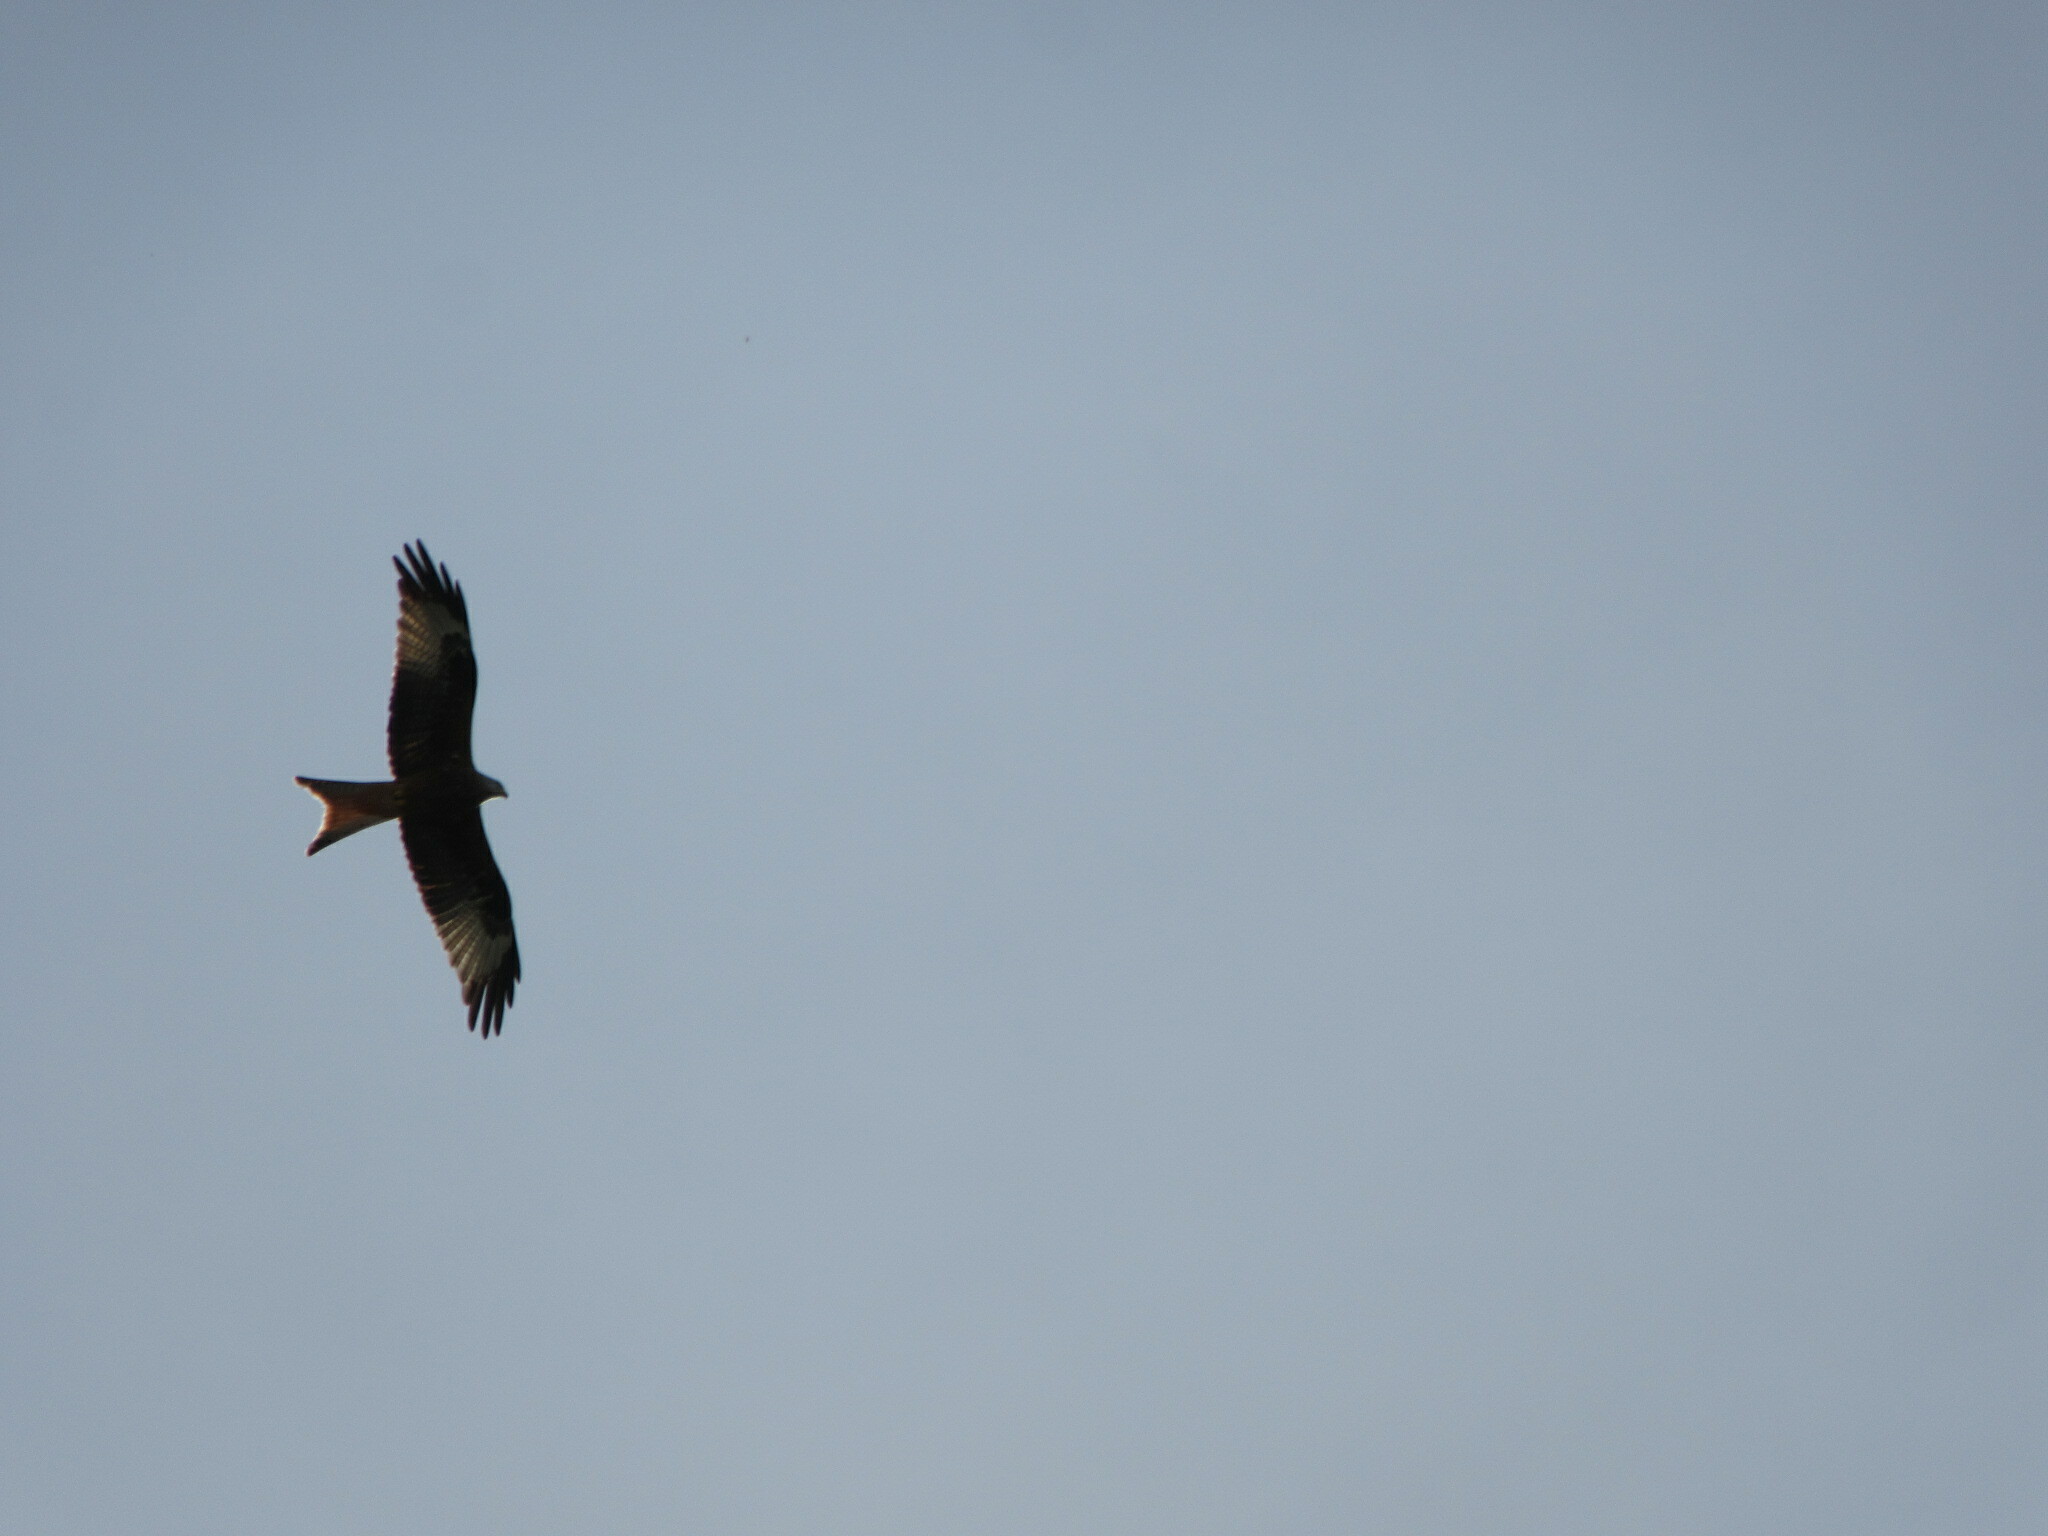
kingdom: Animalia
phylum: Chordata
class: Aves
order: Accipitriformes
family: Accipitridae
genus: Milvus
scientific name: Milvus milvus
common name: Red kite
